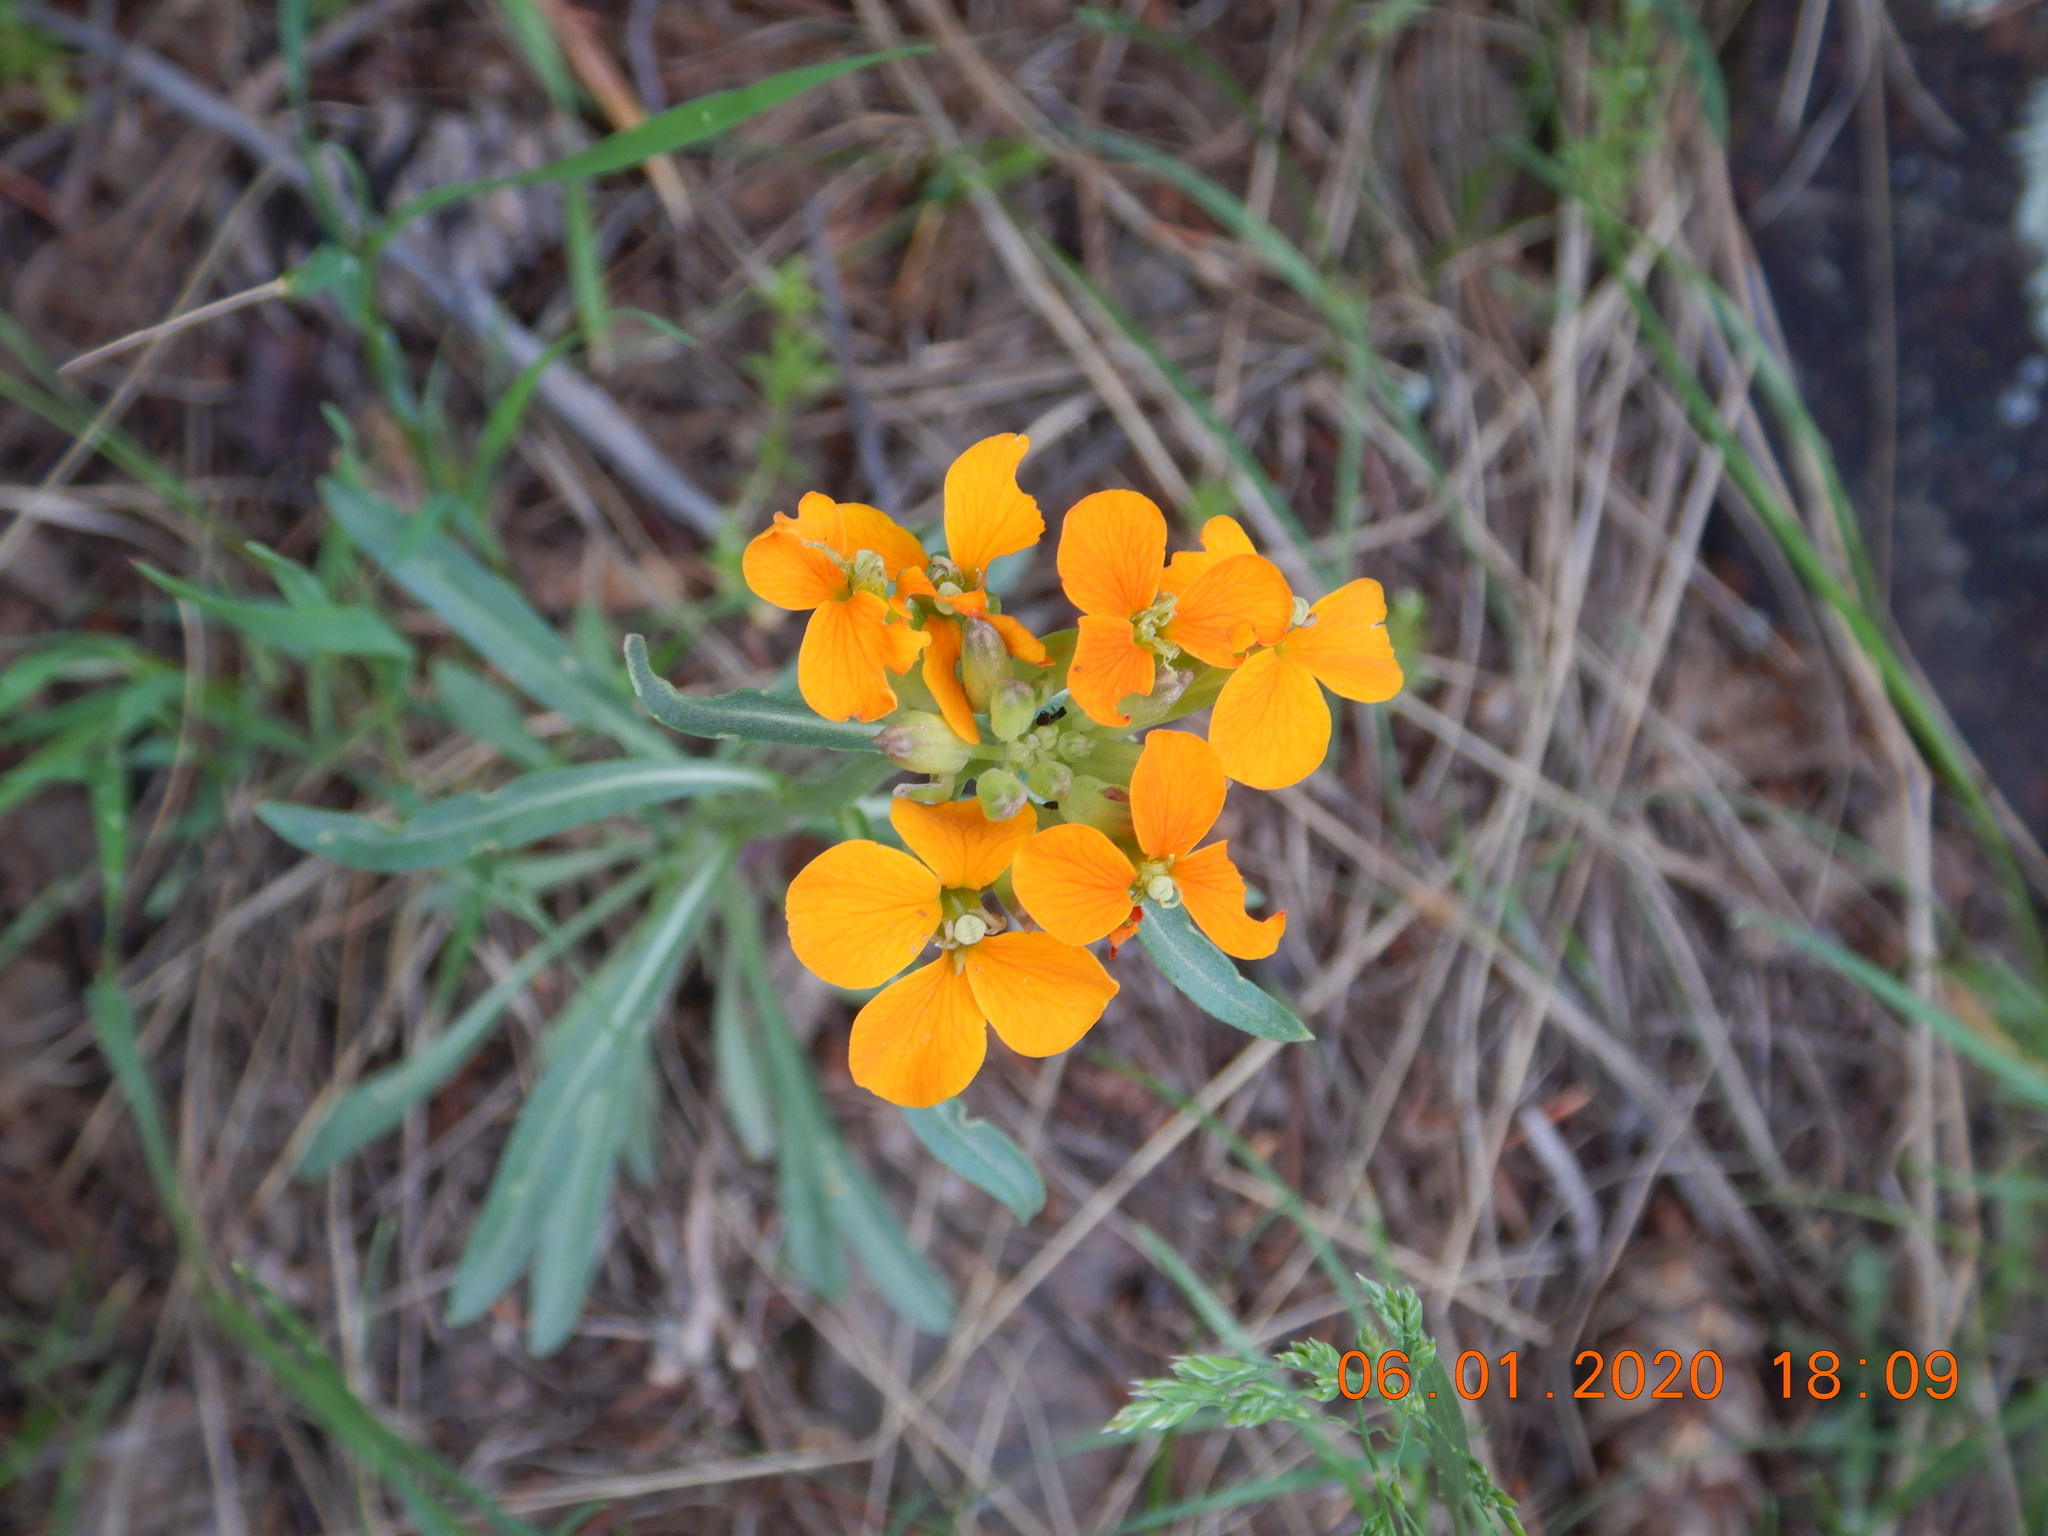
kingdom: Plantae
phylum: Tracheophyta
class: Magnoliopsida
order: Brassicales
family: Brassicaceae
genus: Erysimum
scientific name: Erysimum capitatum
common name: Western wallflower
